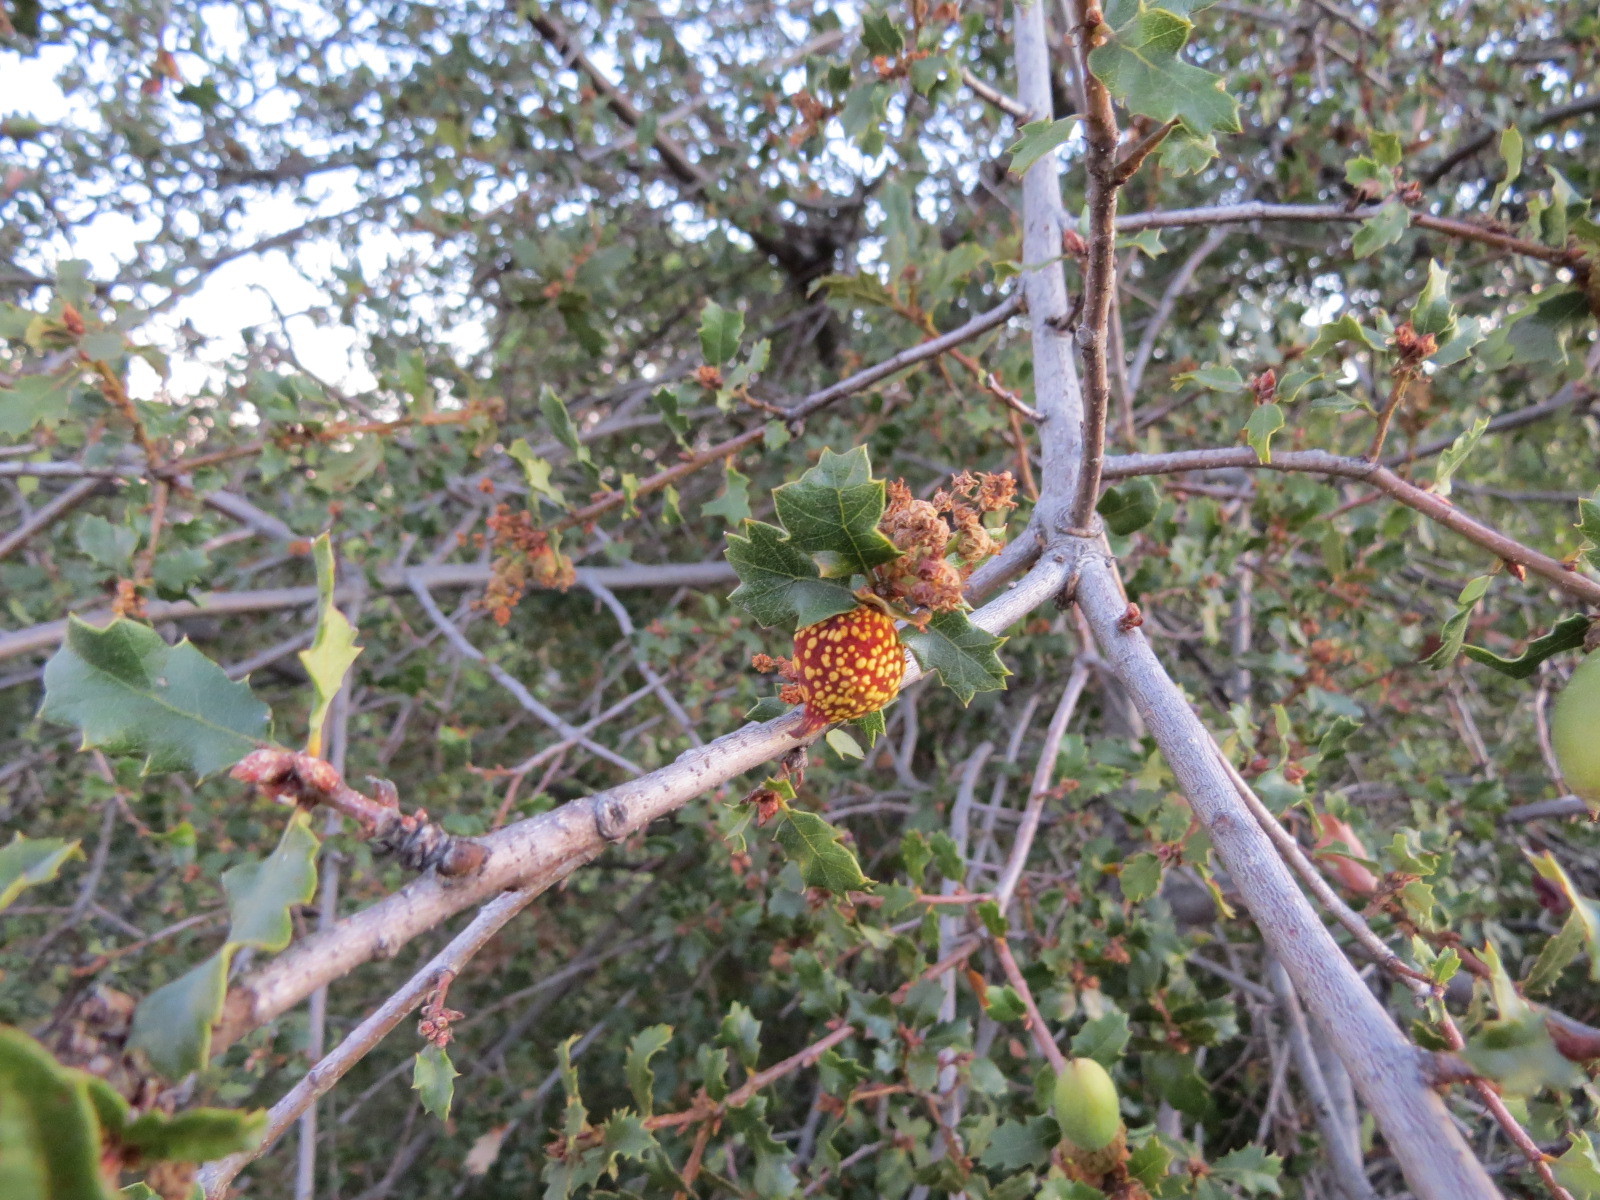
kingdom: Animalia
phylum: Arthropoda
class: Insecta
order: Hymenoptera
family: Cynipidae
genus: Burnettweldia
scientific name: Burnettweldia
